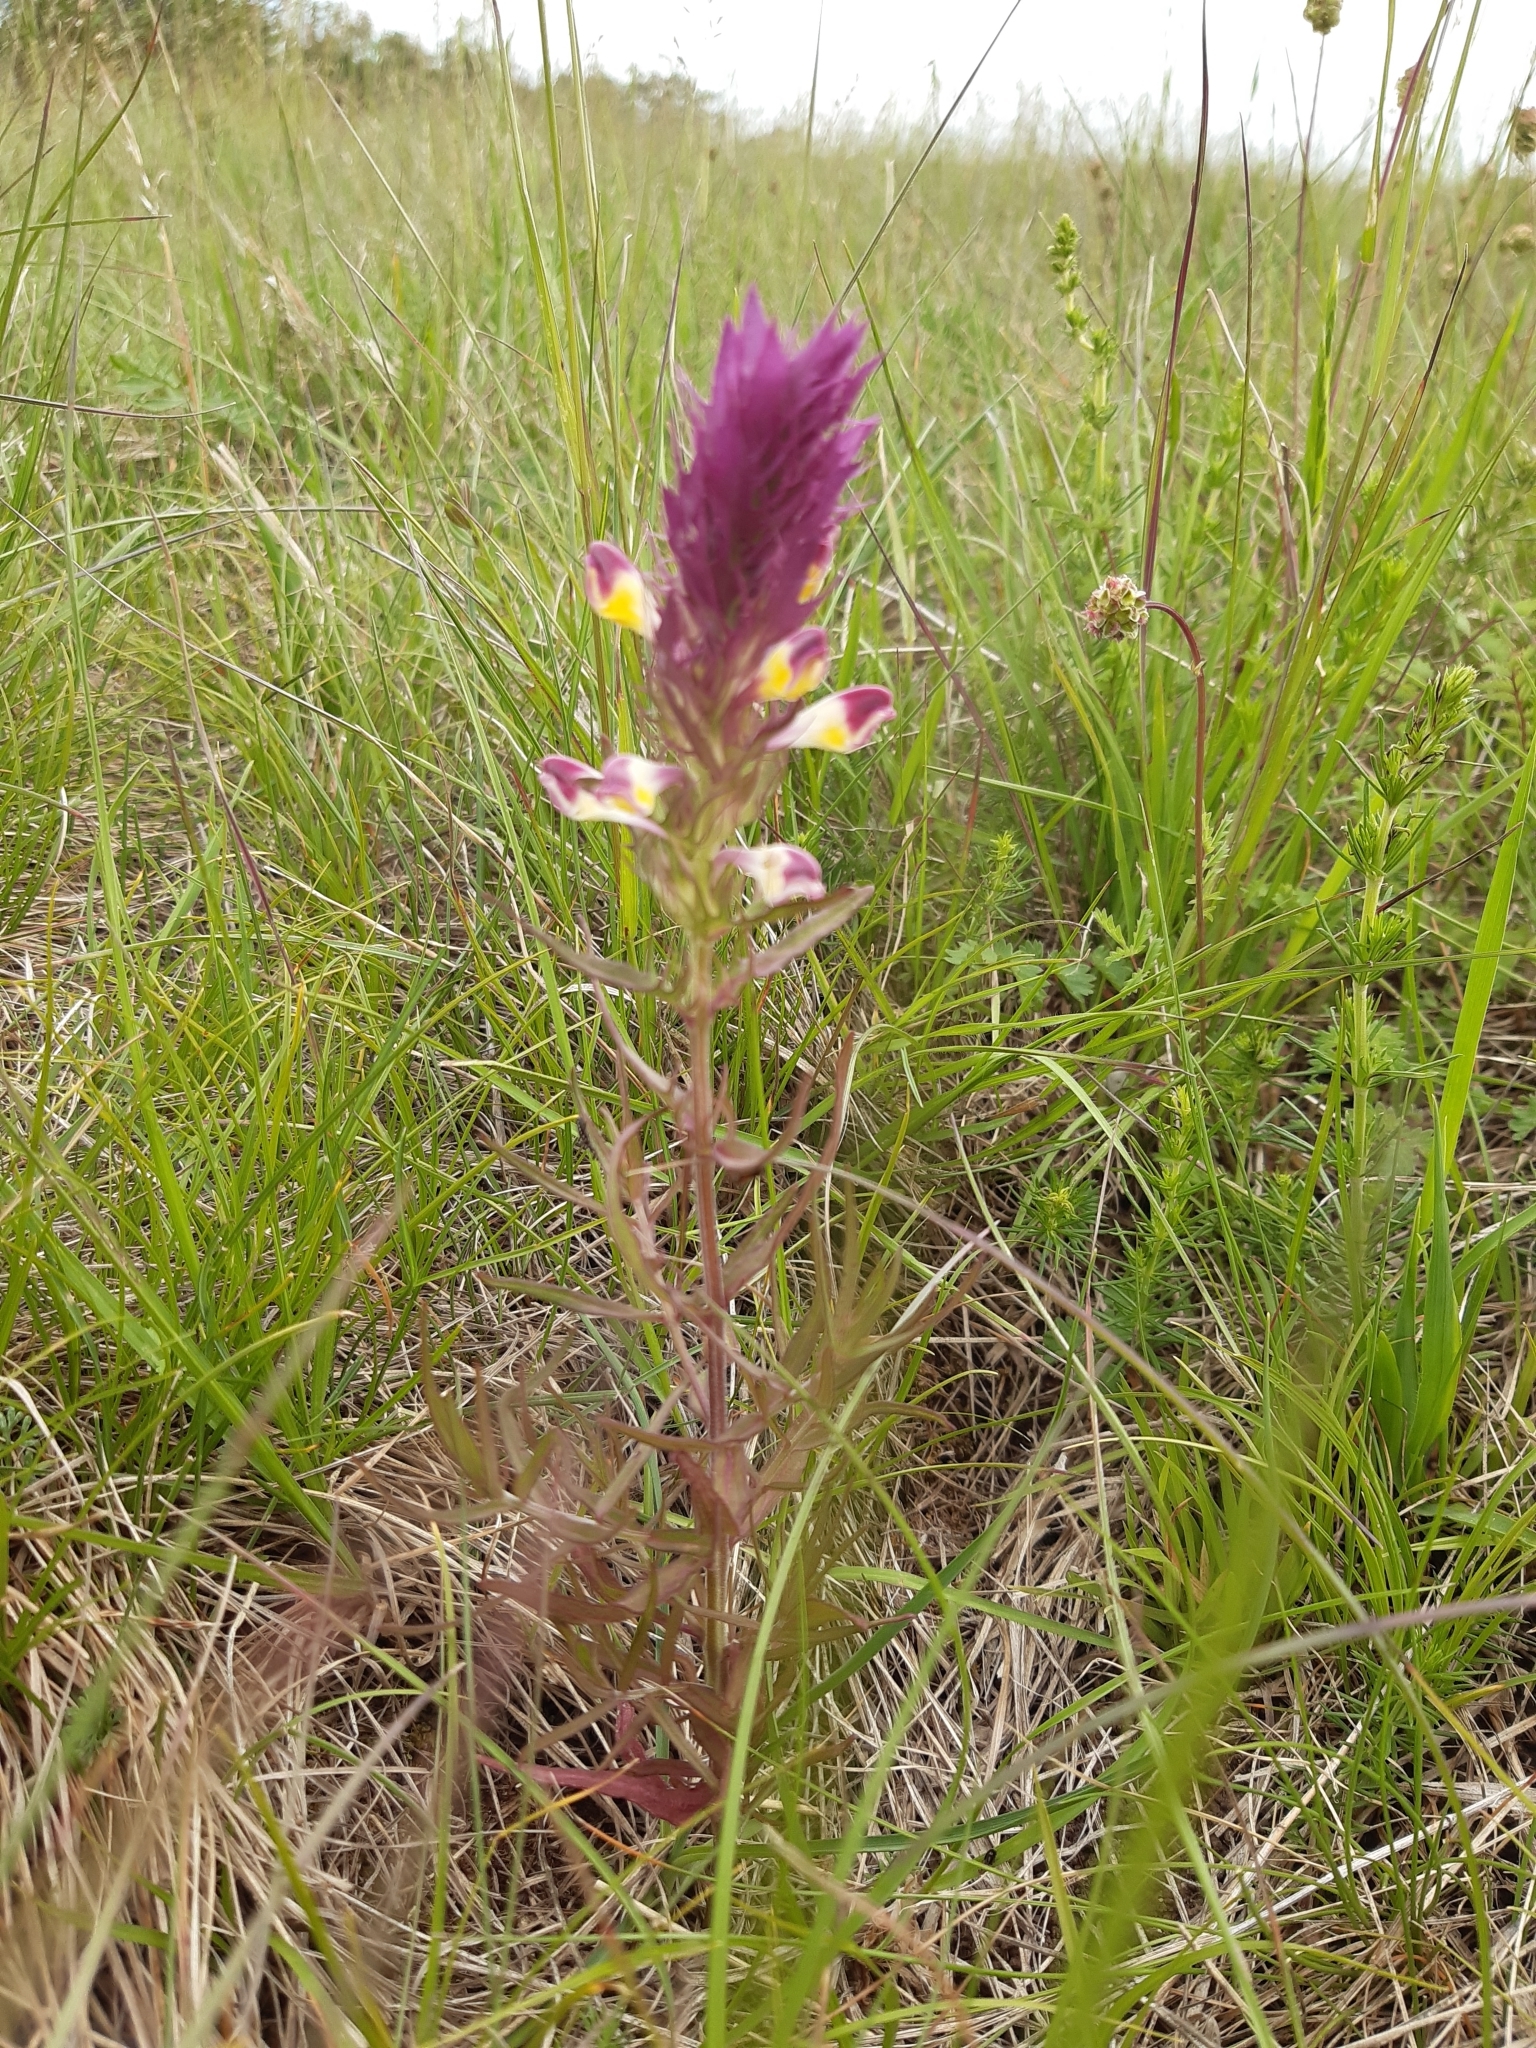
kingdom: Plantae
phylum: Tracheophyta
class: Magnoliopsida
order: Lamiales
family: Orobanchaceae
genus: Melampyrum
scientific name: Melampyrum arvense
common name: Field cow-wheat
